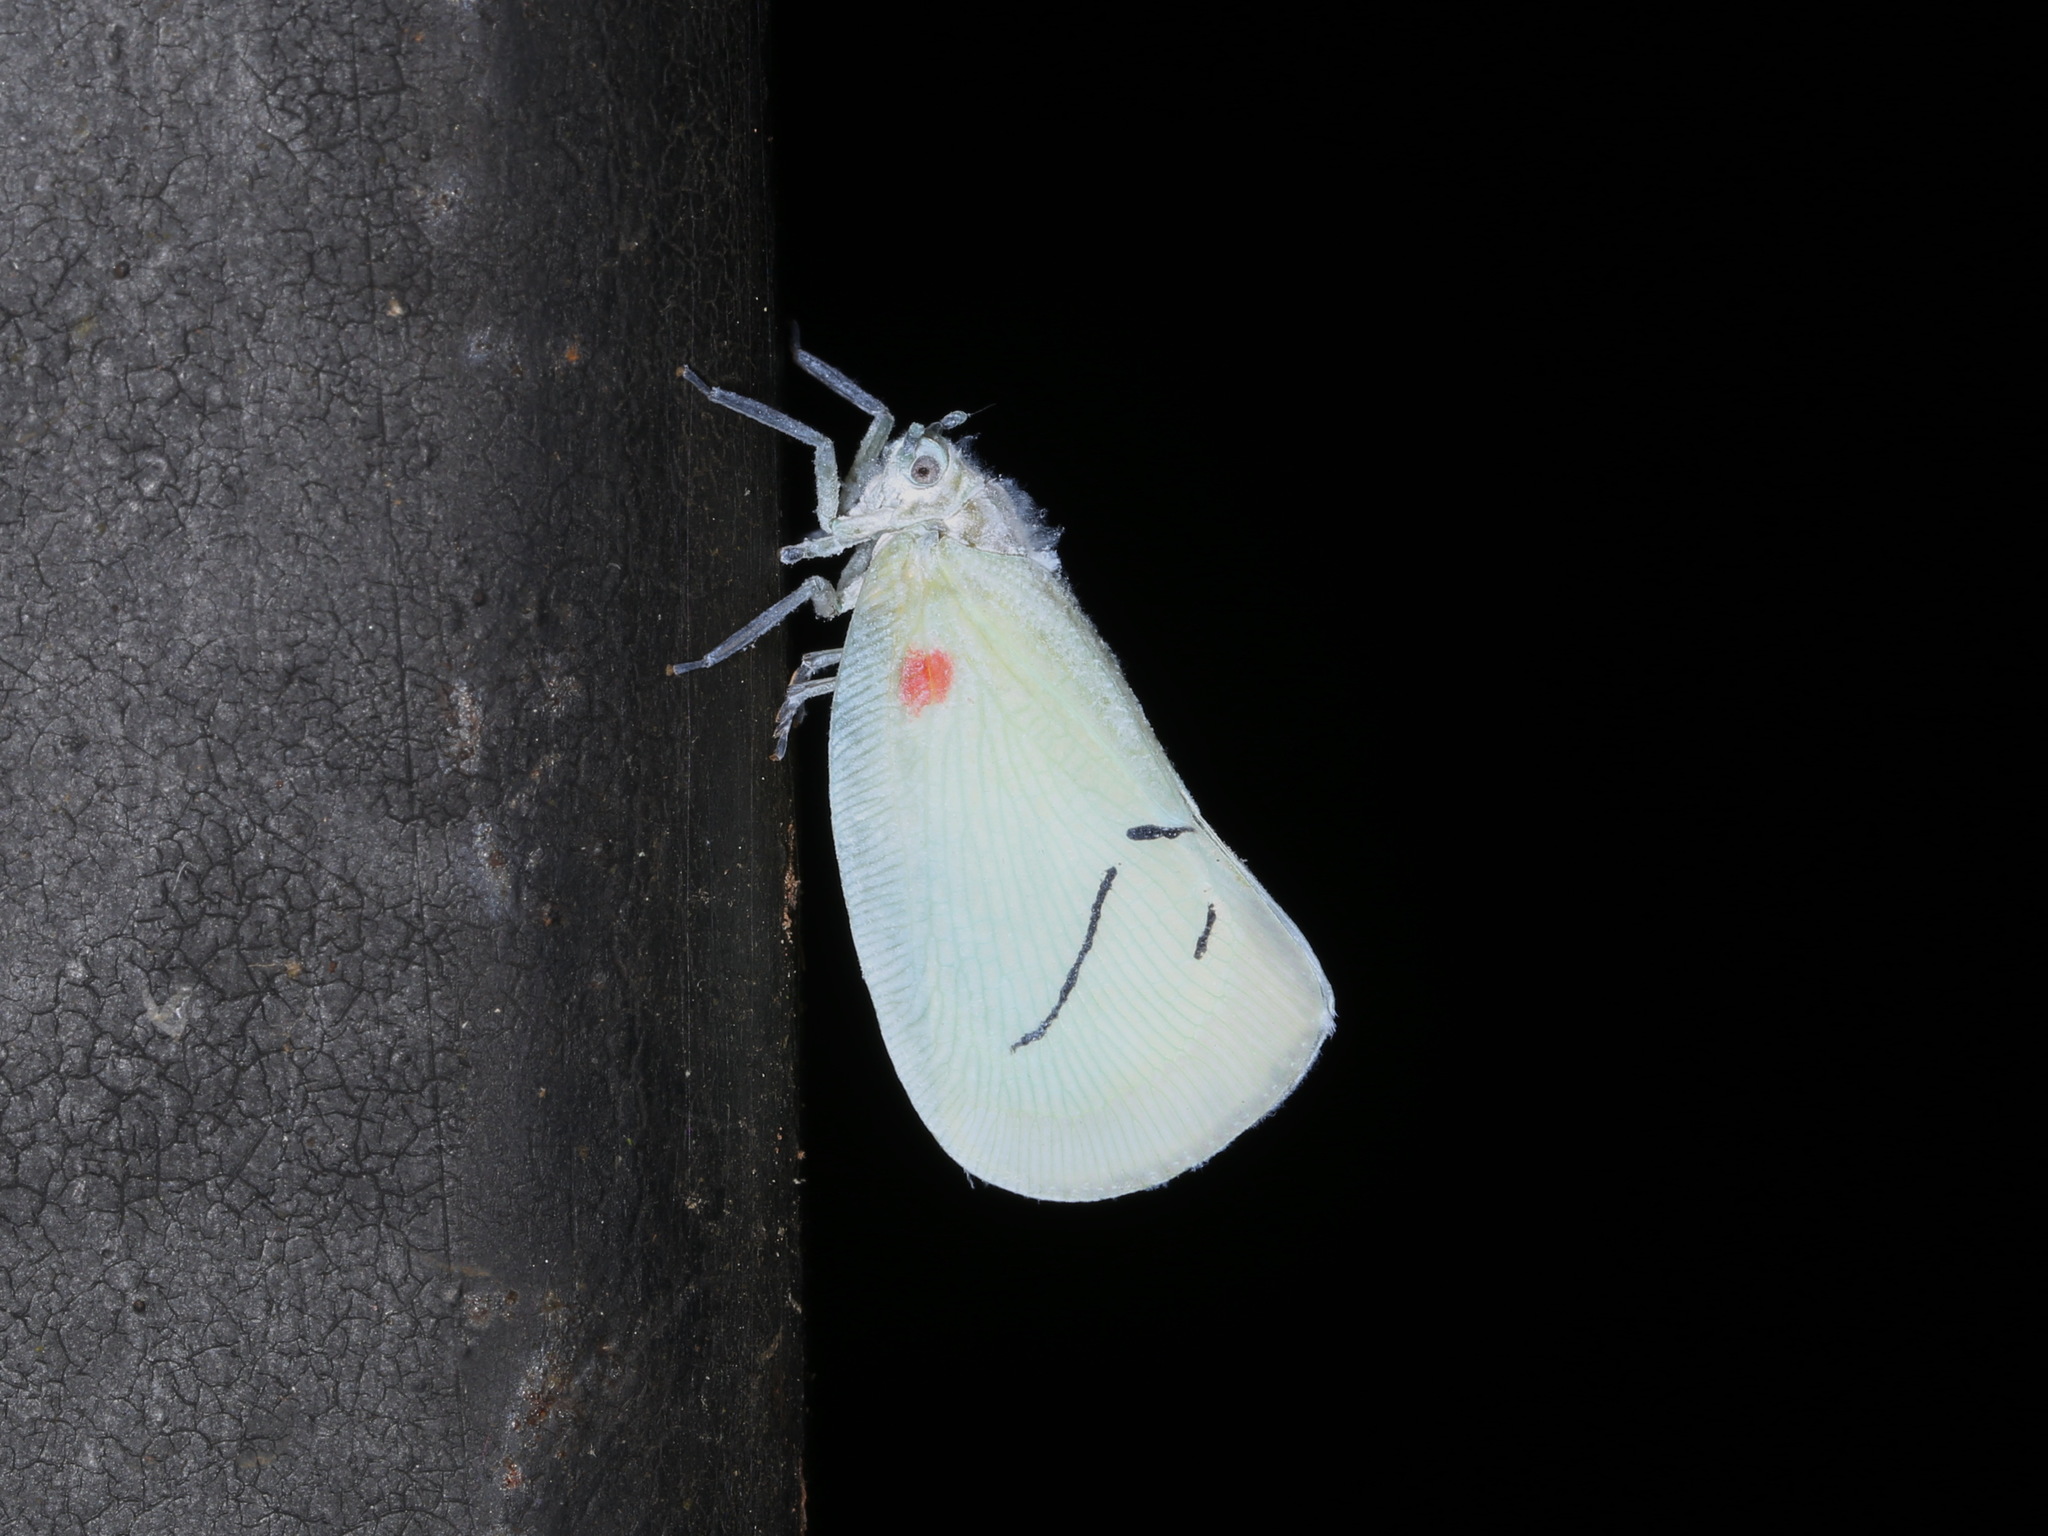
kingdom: Animalia
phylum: Arthropoda
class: Insecta
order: Hemiptera
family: Flatidae
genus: Cerynia
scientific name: Cerynia maria
